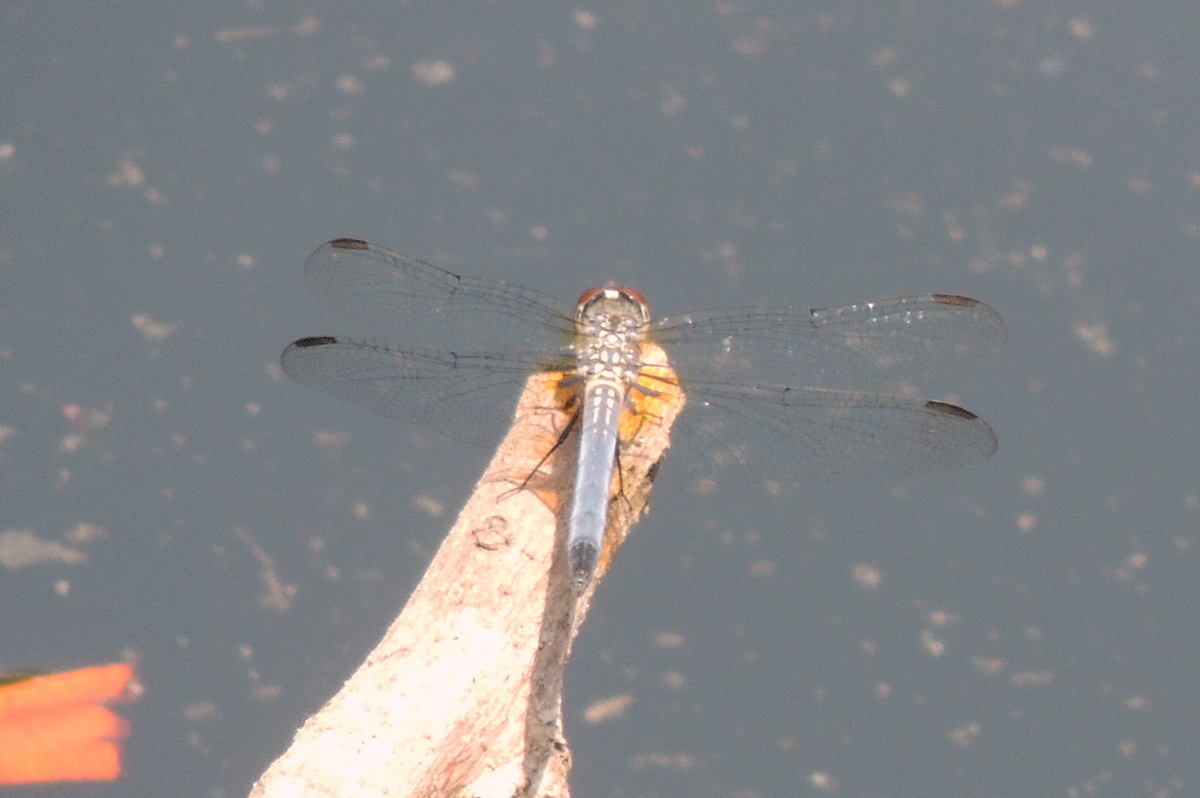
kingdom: Animalia
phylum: Arthropoda
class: Insecta
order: Odonata
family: Libellulidae
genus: Pachydiplax
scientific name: Pachydiplax longipennis
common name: Blue dasher
